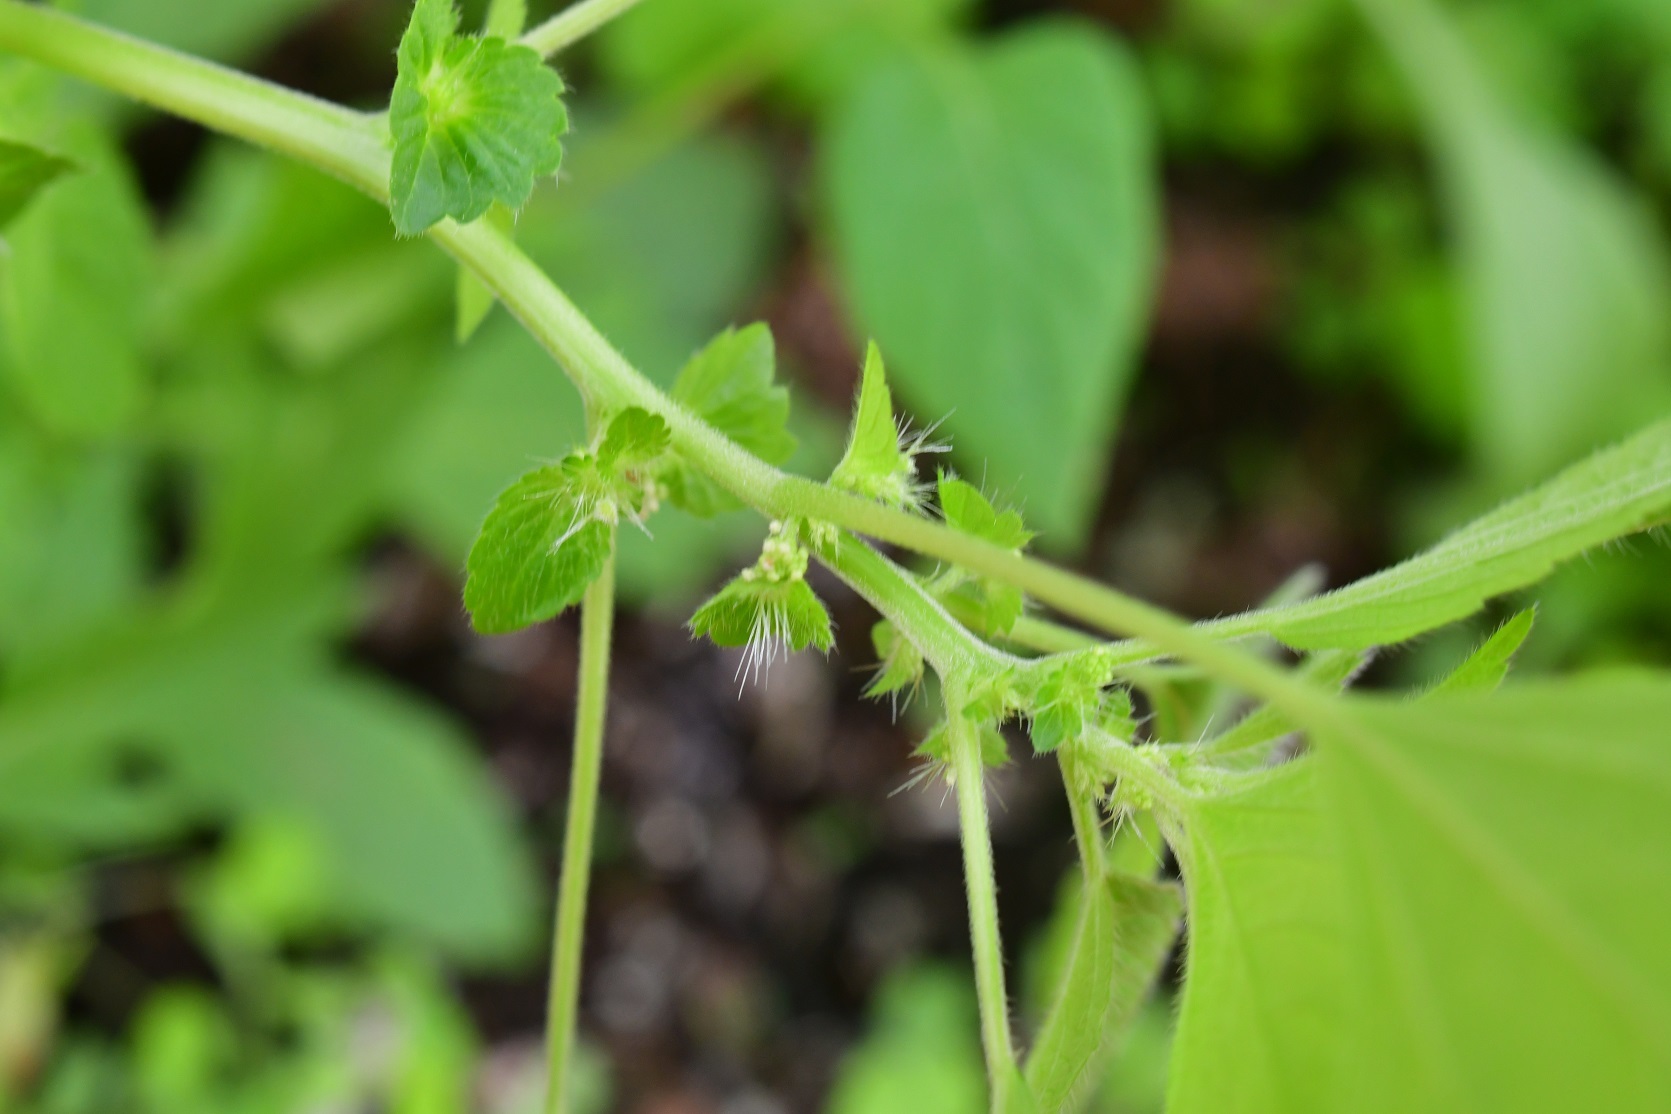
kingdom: Plantae
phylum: Tracheophyta
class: Magnoliopsida
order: Malpighiales
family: Euphorbiaceae
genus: Acalypha
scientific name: Acalypha mexicana
